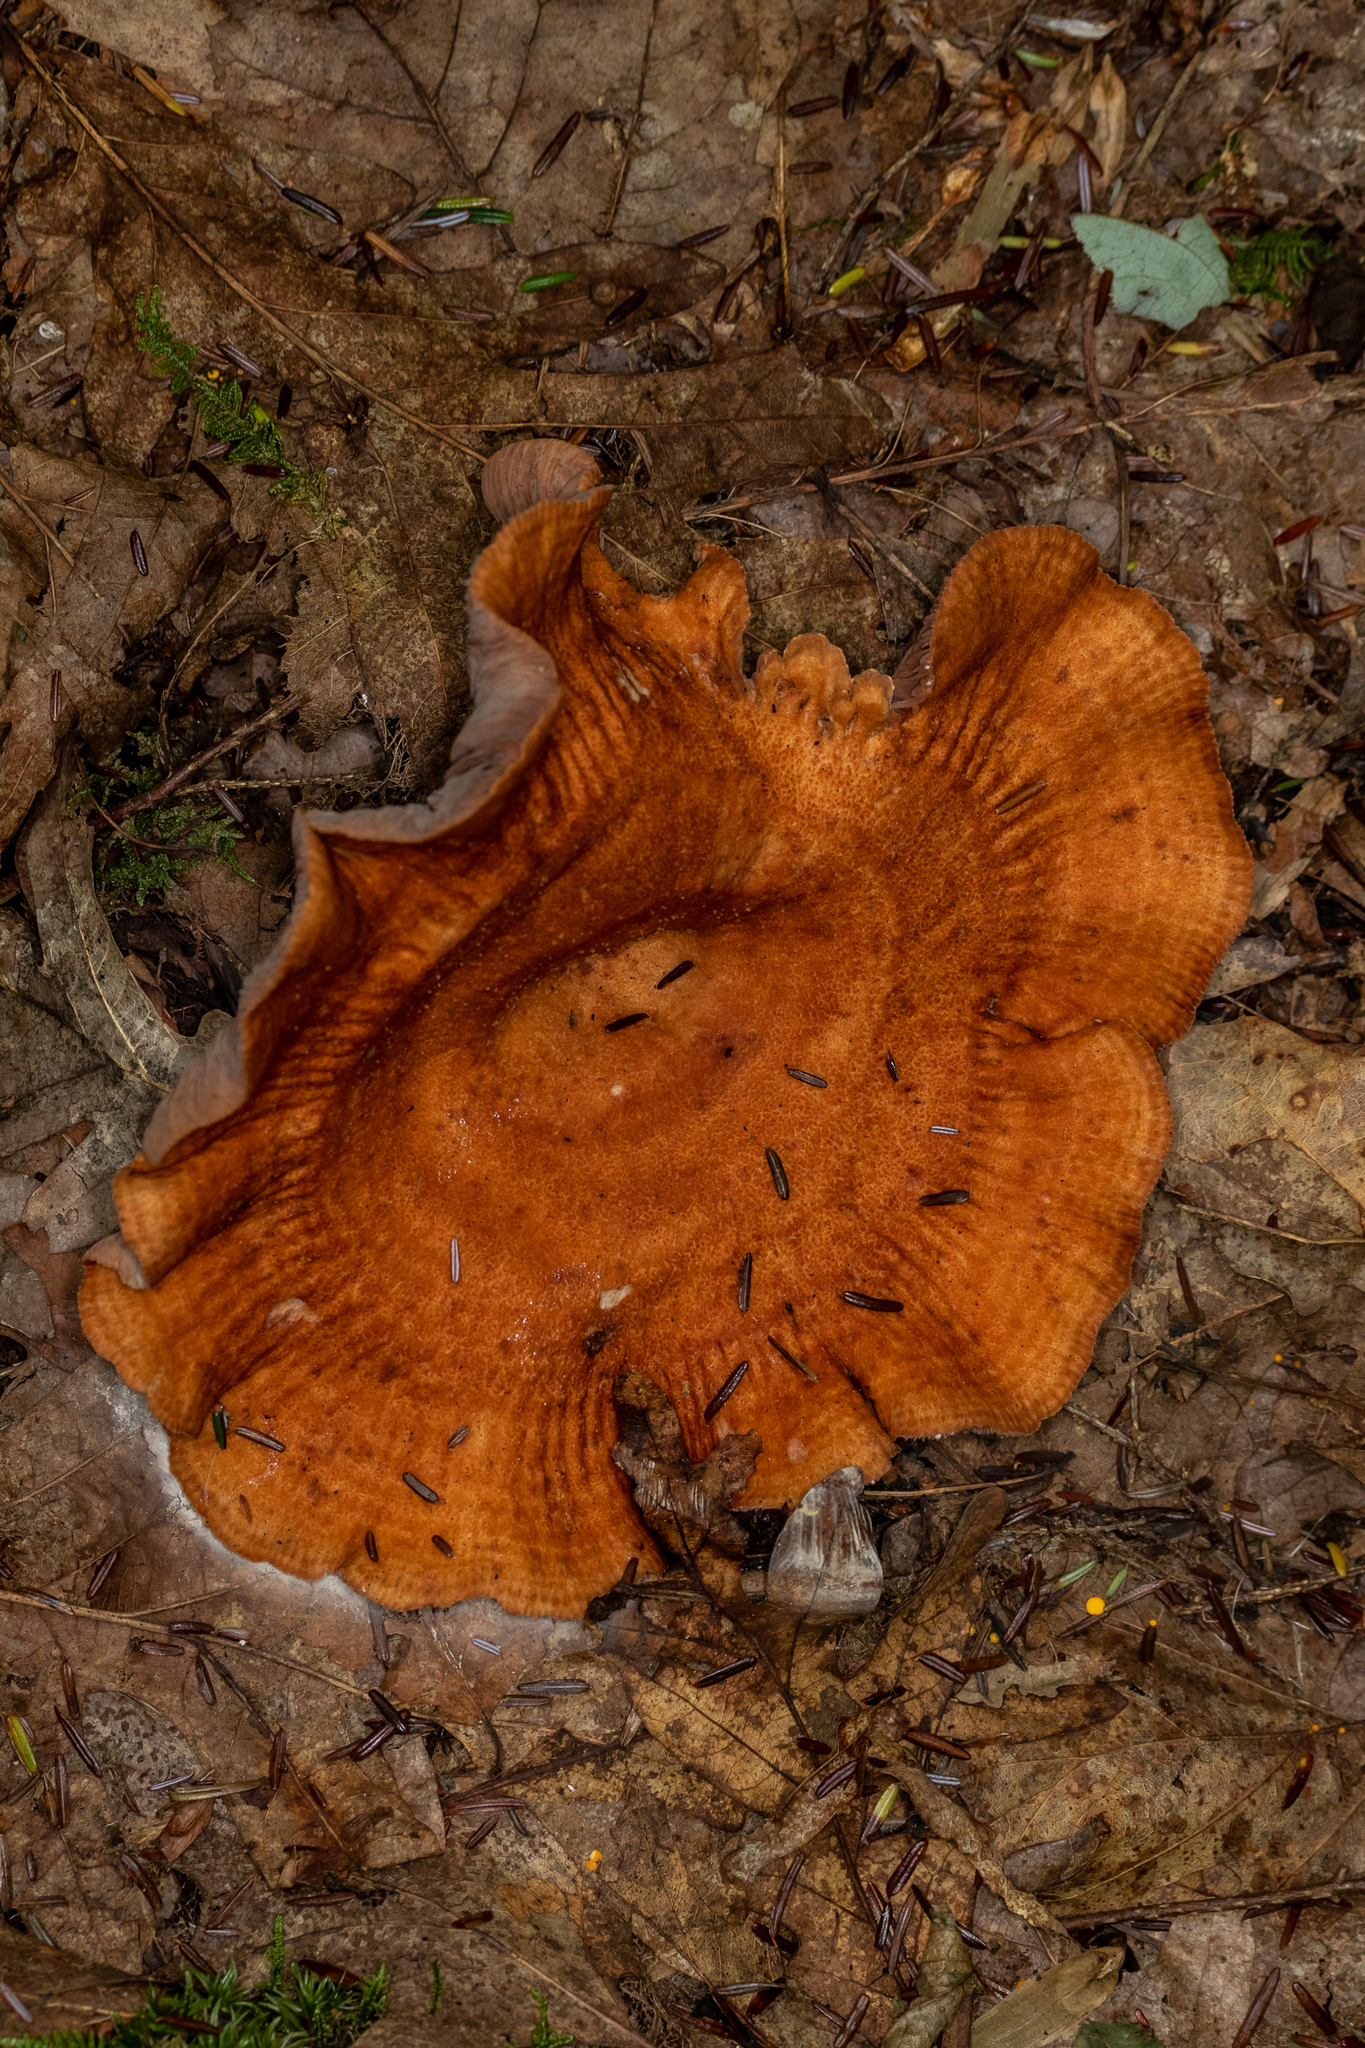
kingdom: Fungi
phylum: Basidiomycota
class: Agaricomycetes
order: Russulales
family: Russulaceae
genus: Lactarius
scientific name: Lactarius peckii
